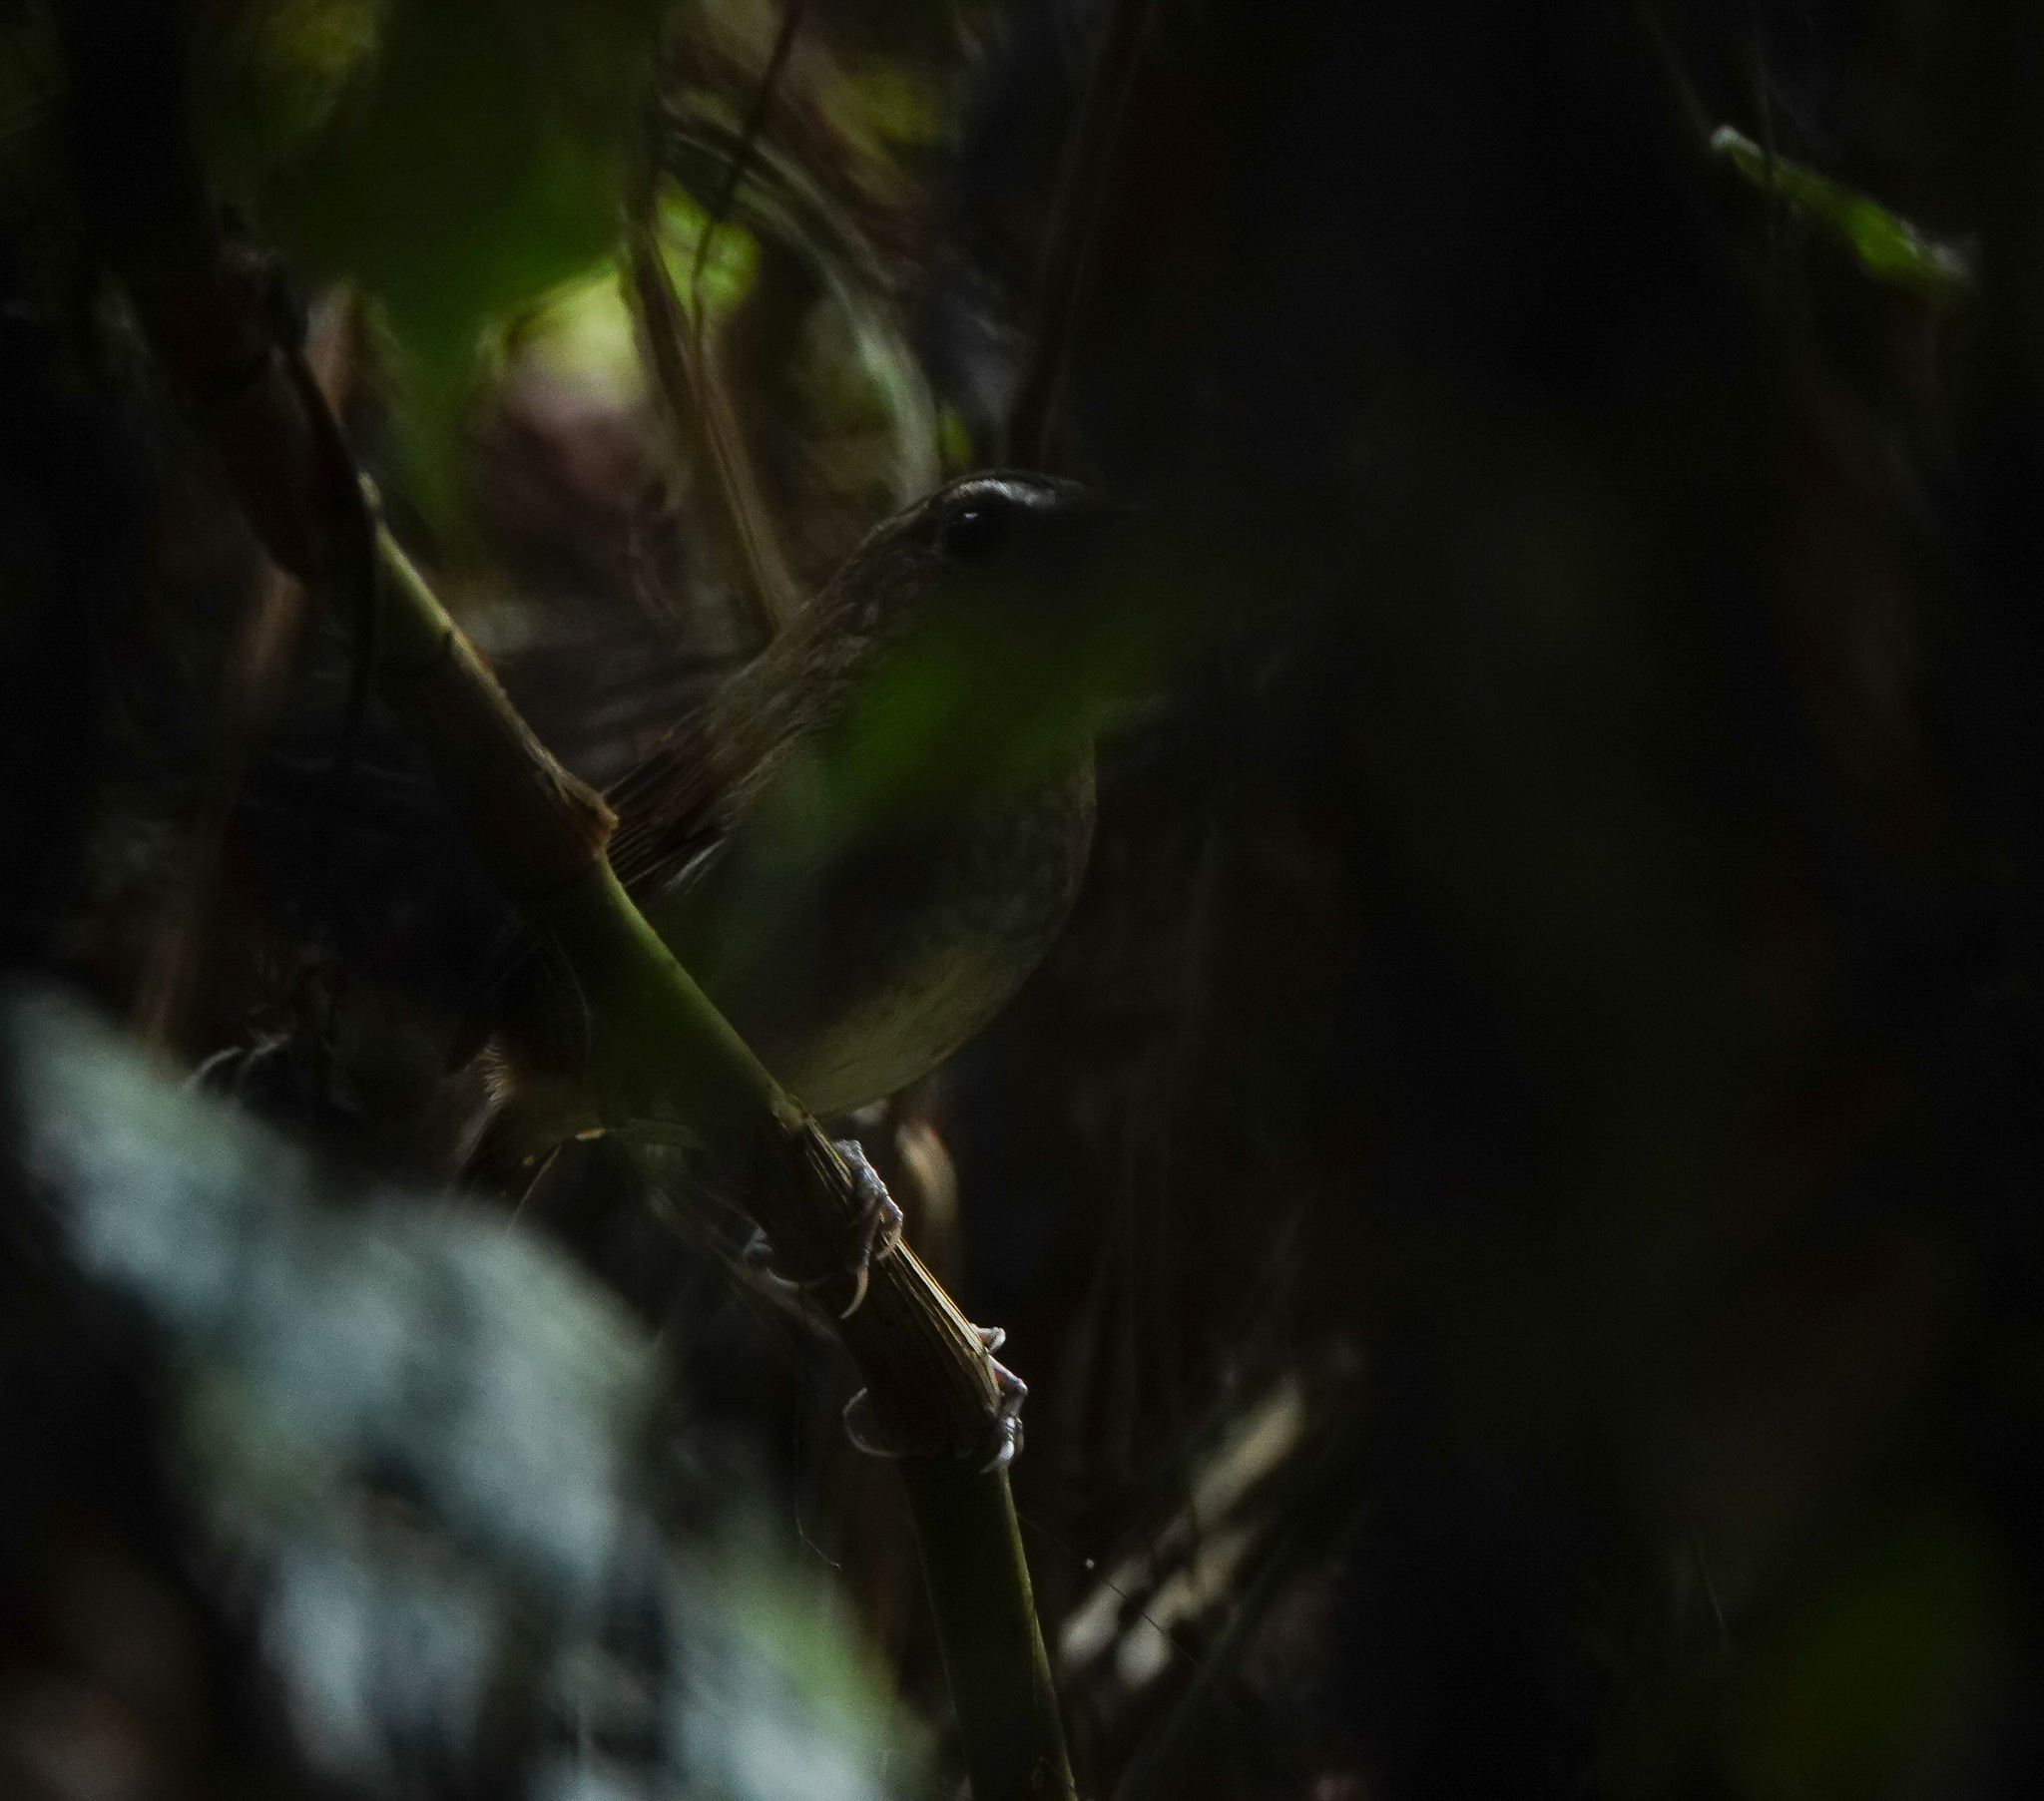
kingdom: Animalia
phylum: Chordata
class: Aves
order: Passeriformes
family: Muscicapidae
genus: Brachypteryx
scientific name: Brachypteryx leucophris
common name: Lesser shortwing
